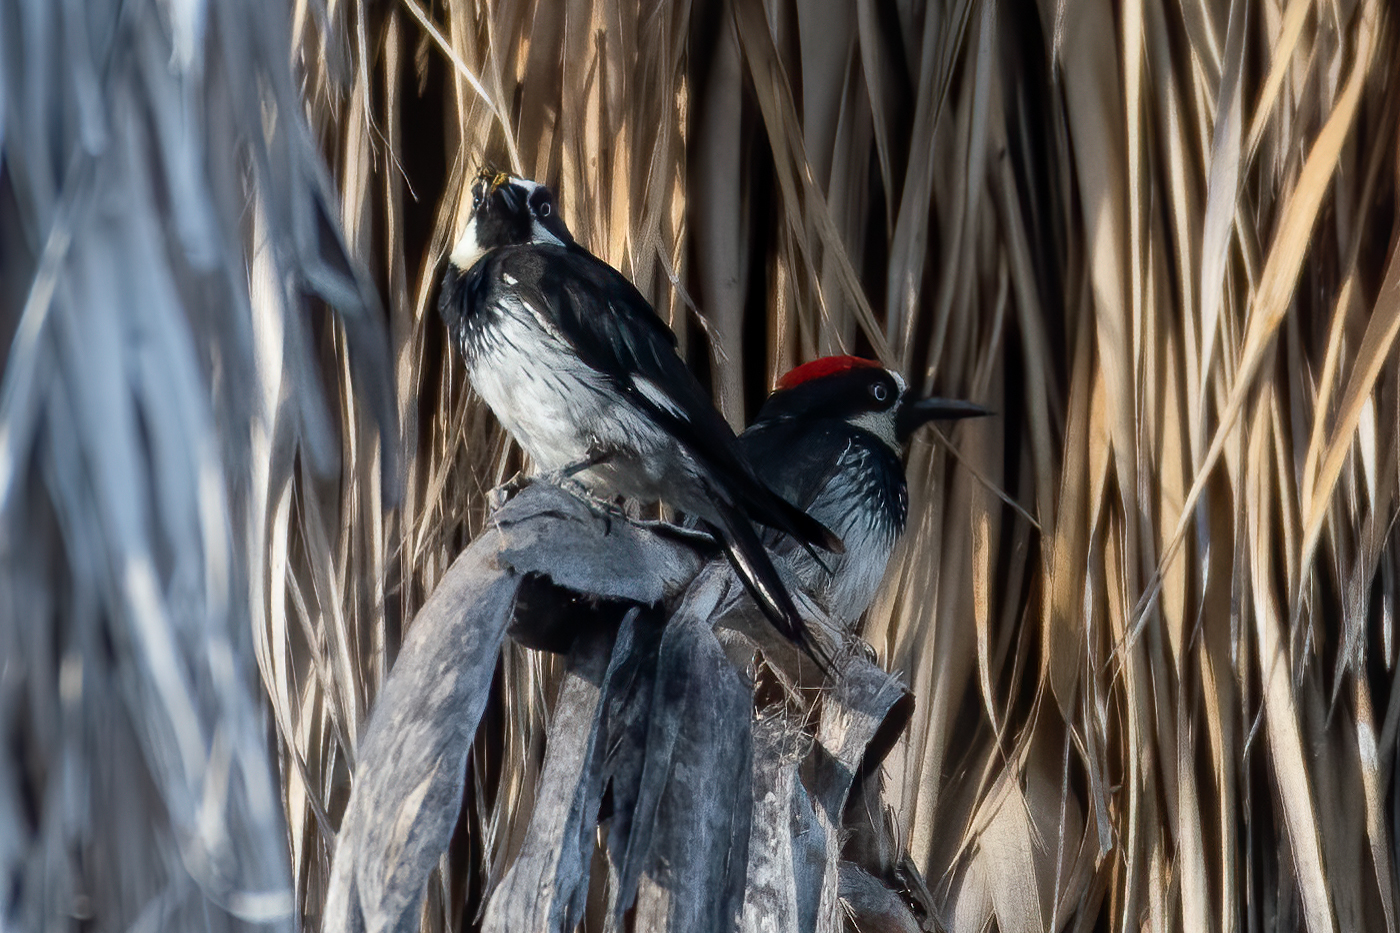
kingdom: Animalia
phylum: Chordata
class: Aves
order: Piciformes
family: Picidae
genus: Melanerpes
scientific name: Melanerpes formicivorus
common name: Acorn woodpecker
